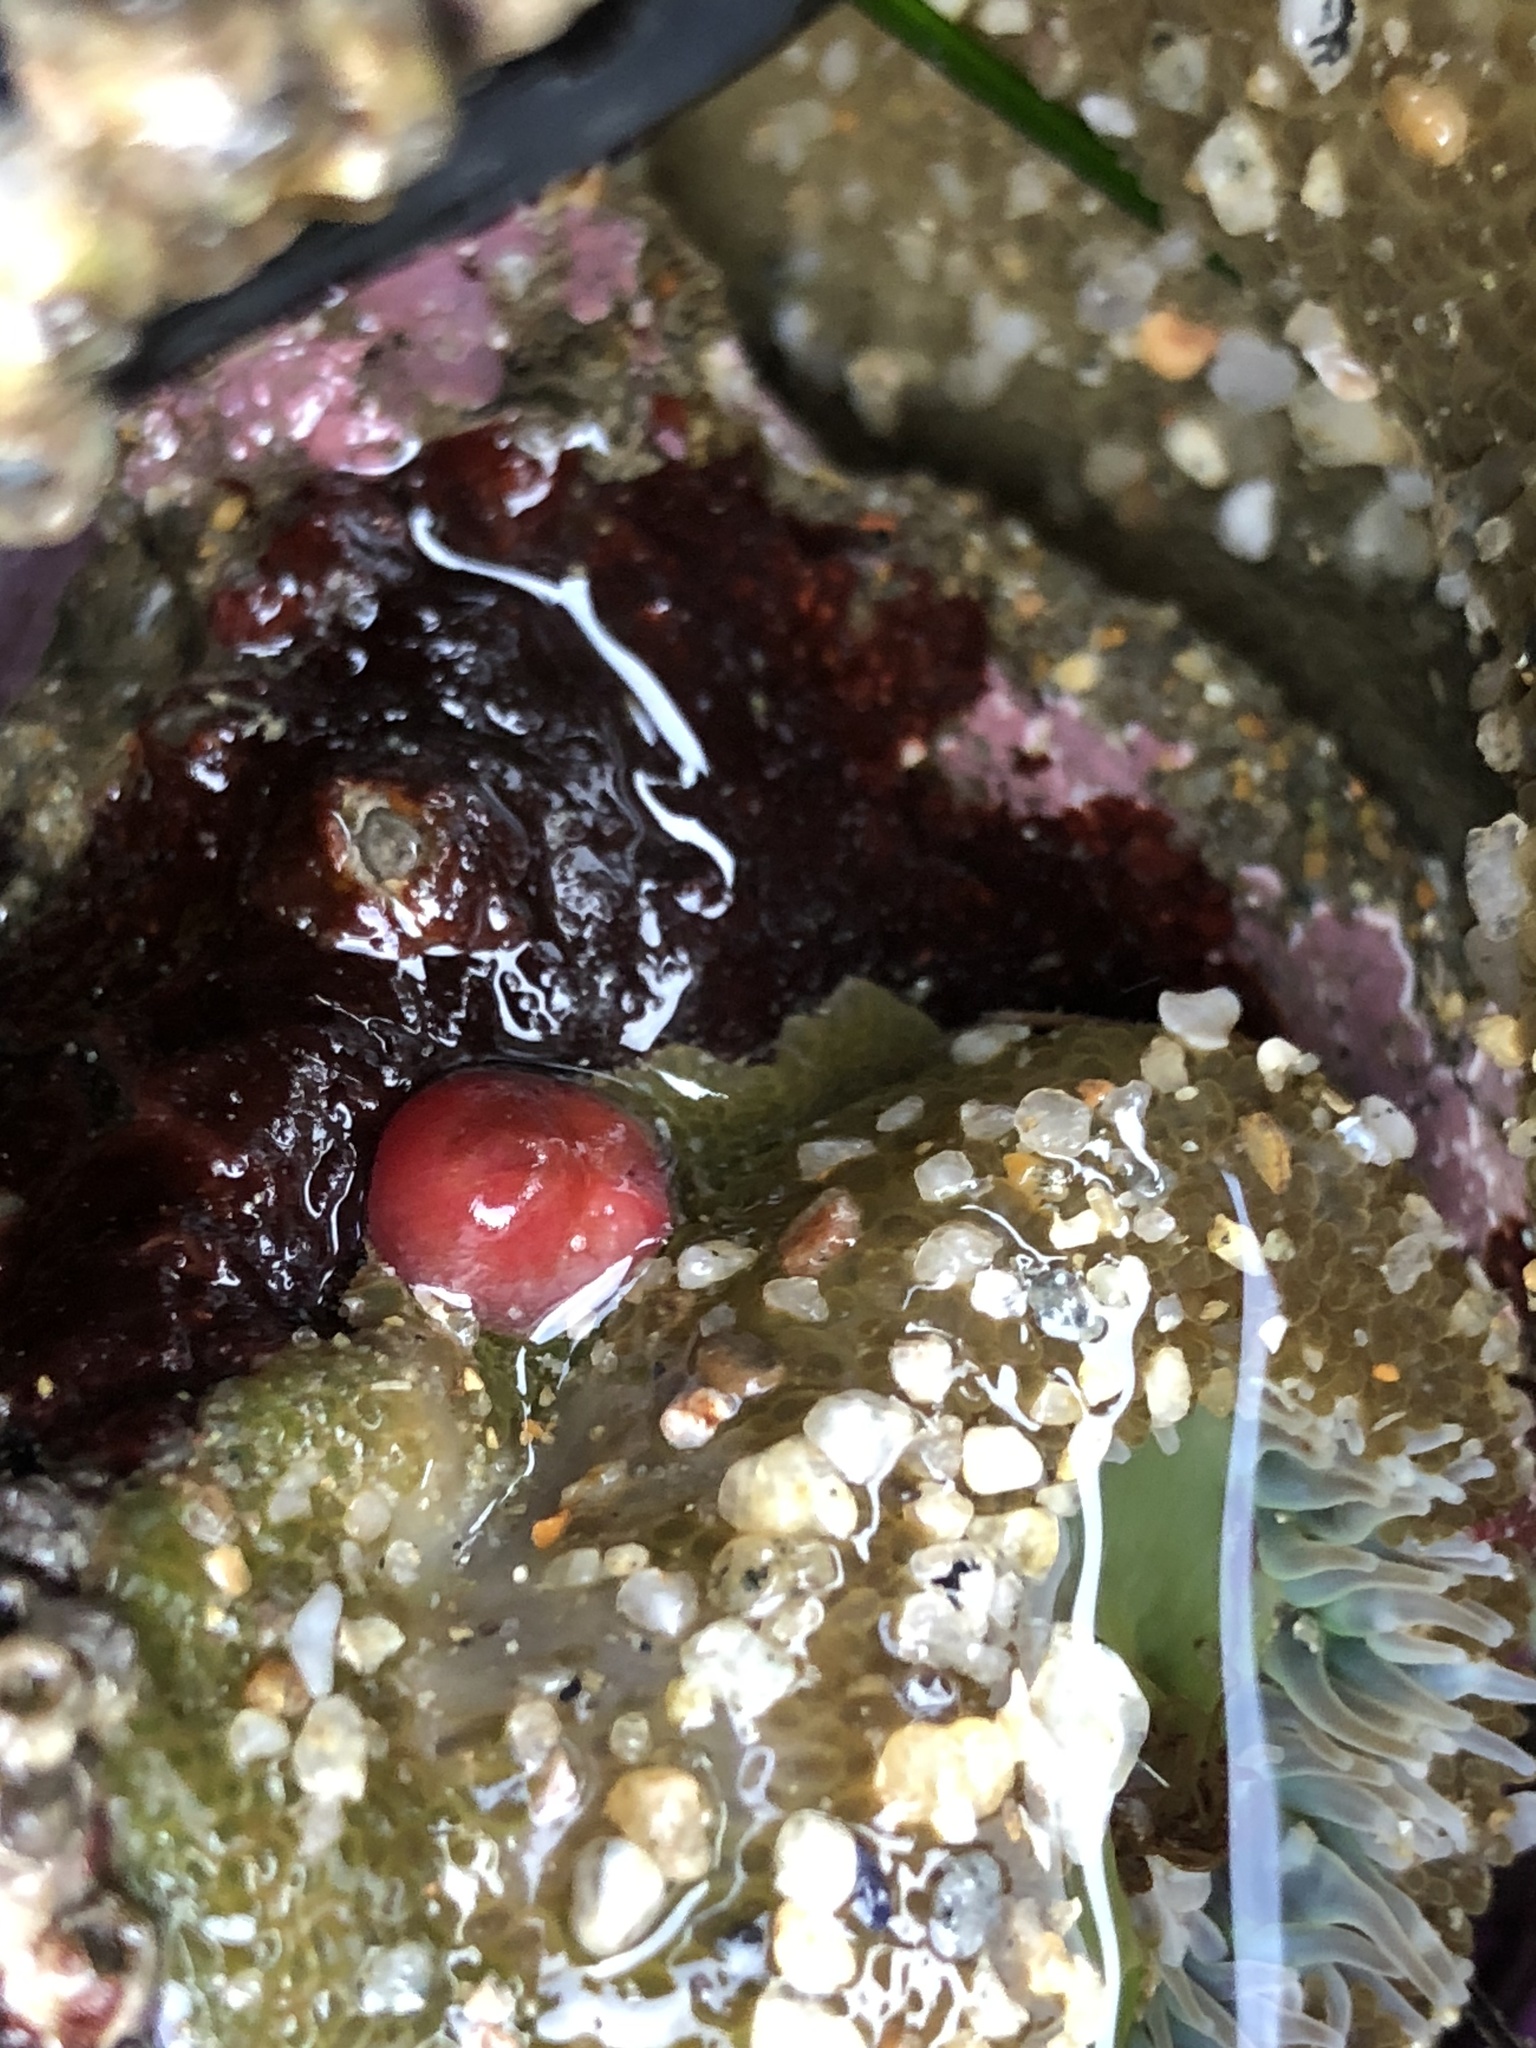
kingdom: Animalia
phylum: Mollusca
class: Bivalvia
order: Adapedonta
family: Hiatellidae
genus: Hiatella
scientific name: Hiatella arctica
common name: Arctic hiatella
